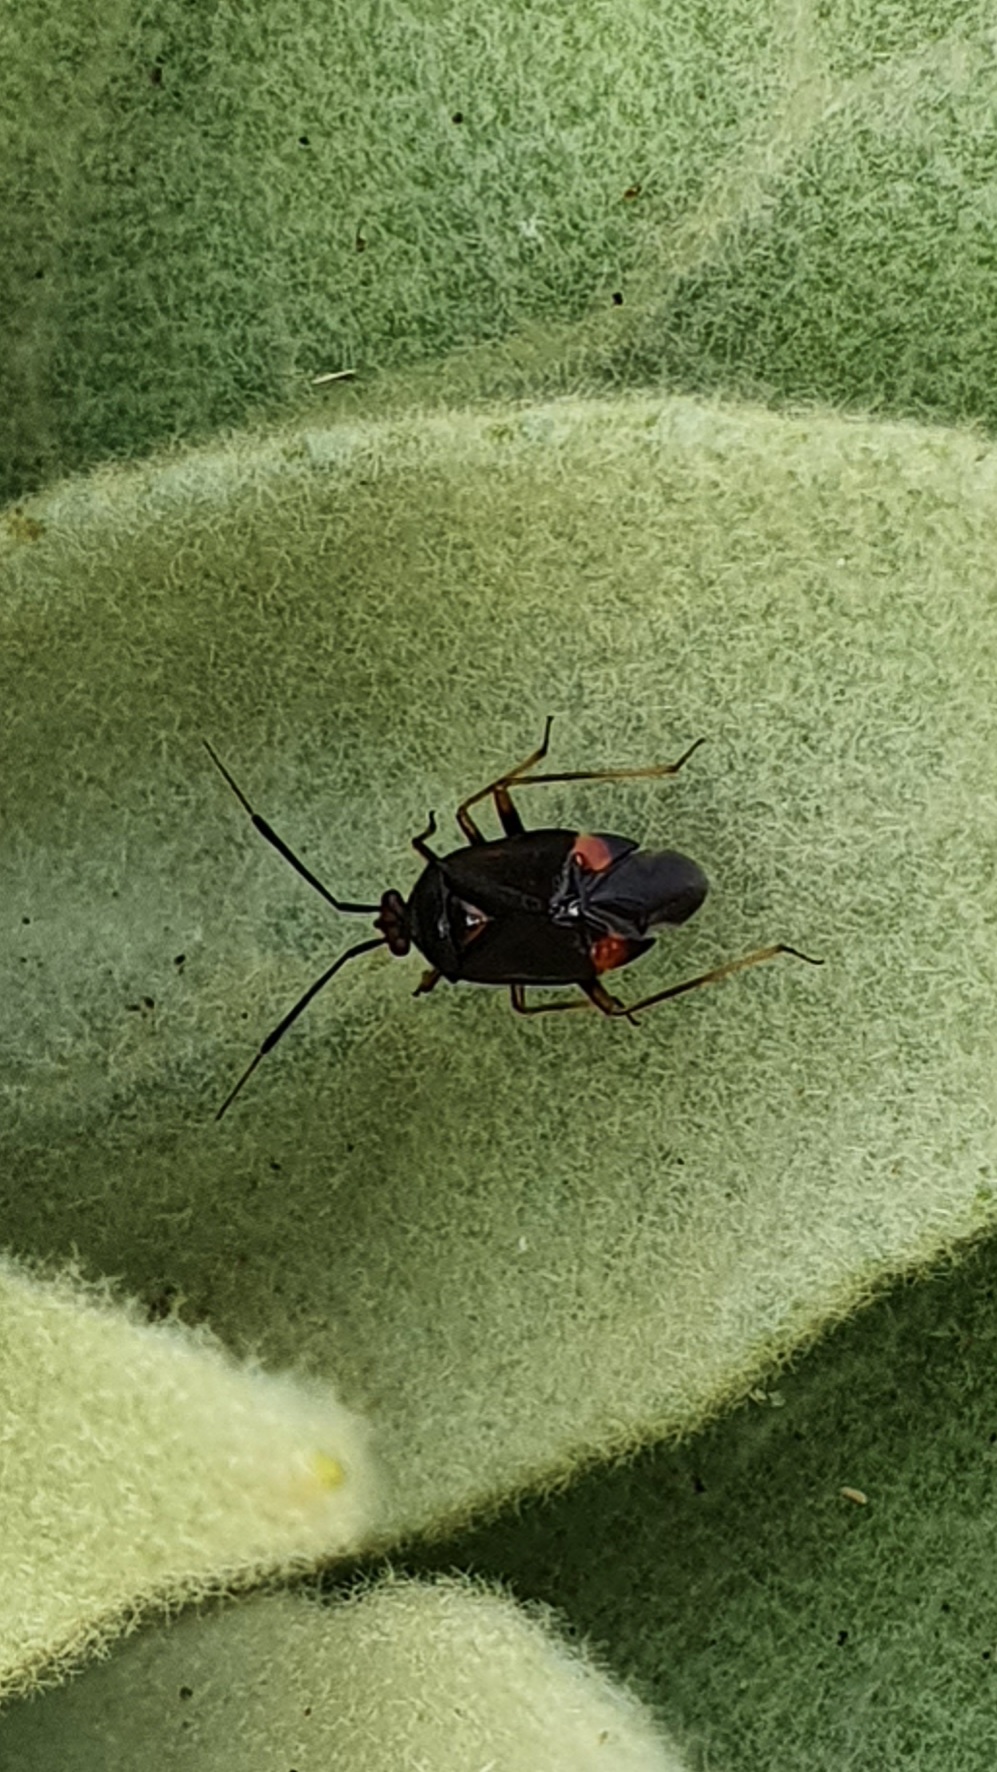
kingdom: Animalia
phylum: Arthropoda
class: Insecta
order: Hemiptera
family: Miridae
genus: Deraeocoris
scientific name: Deraeocoris ruber
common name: Plant bug
